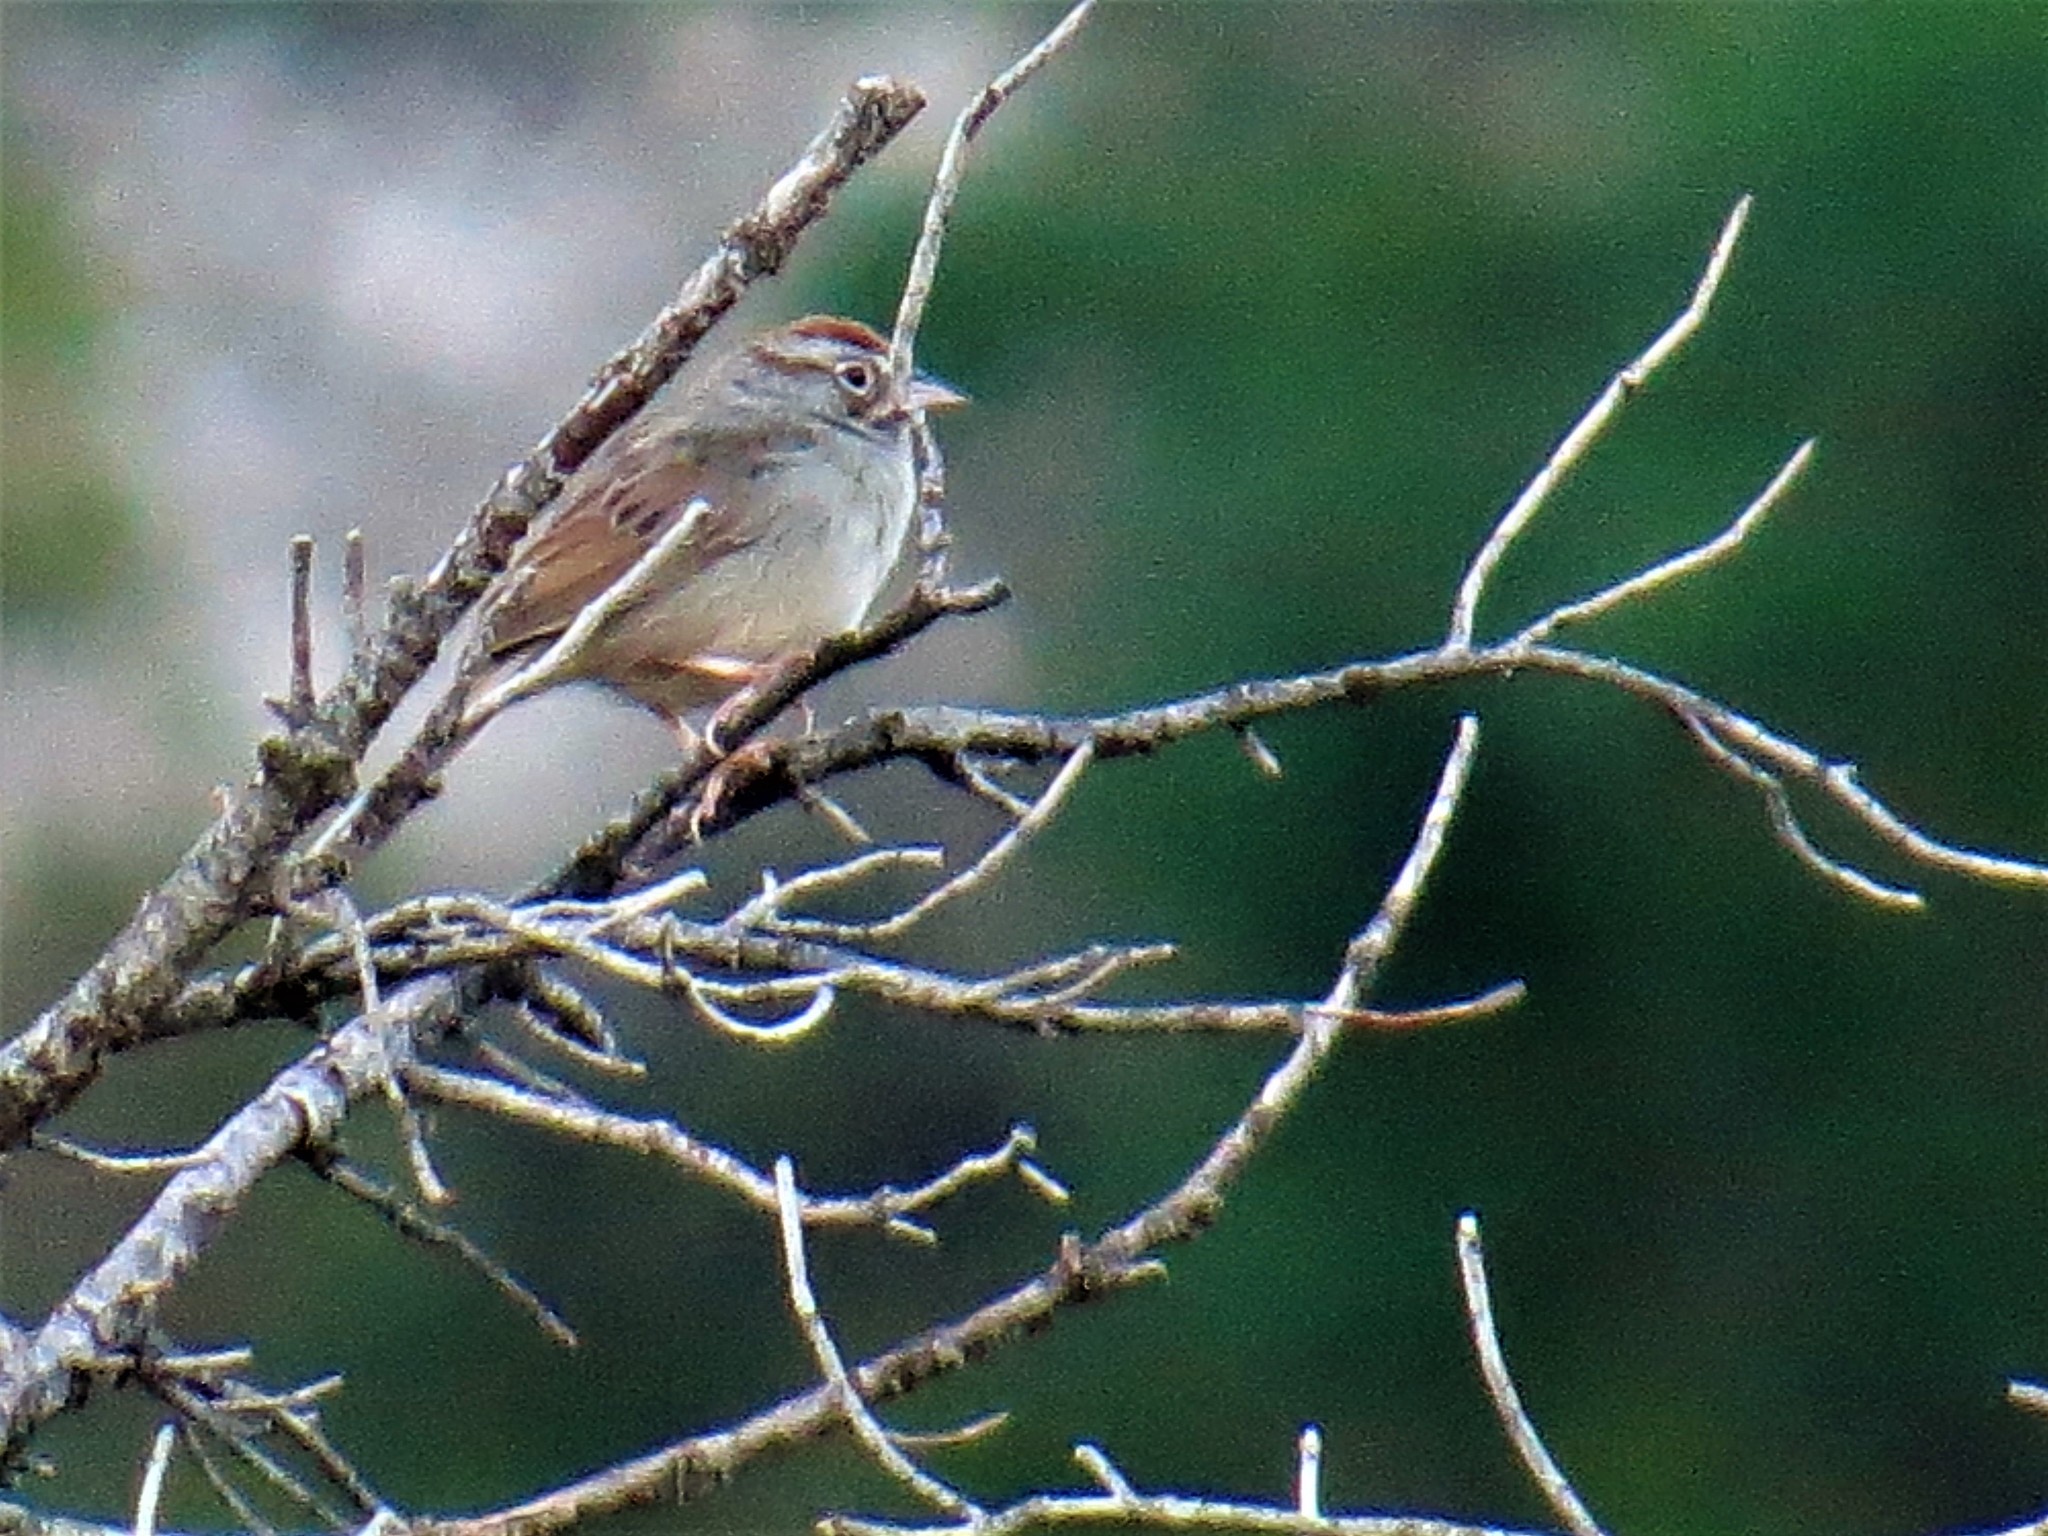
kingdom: Animalia
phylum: Chordata
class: Aves
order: Passeriformes
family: Passerellidae
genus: Aimophila
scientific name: Aimophila ruficeps
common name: Rufous-crowned sparrow
